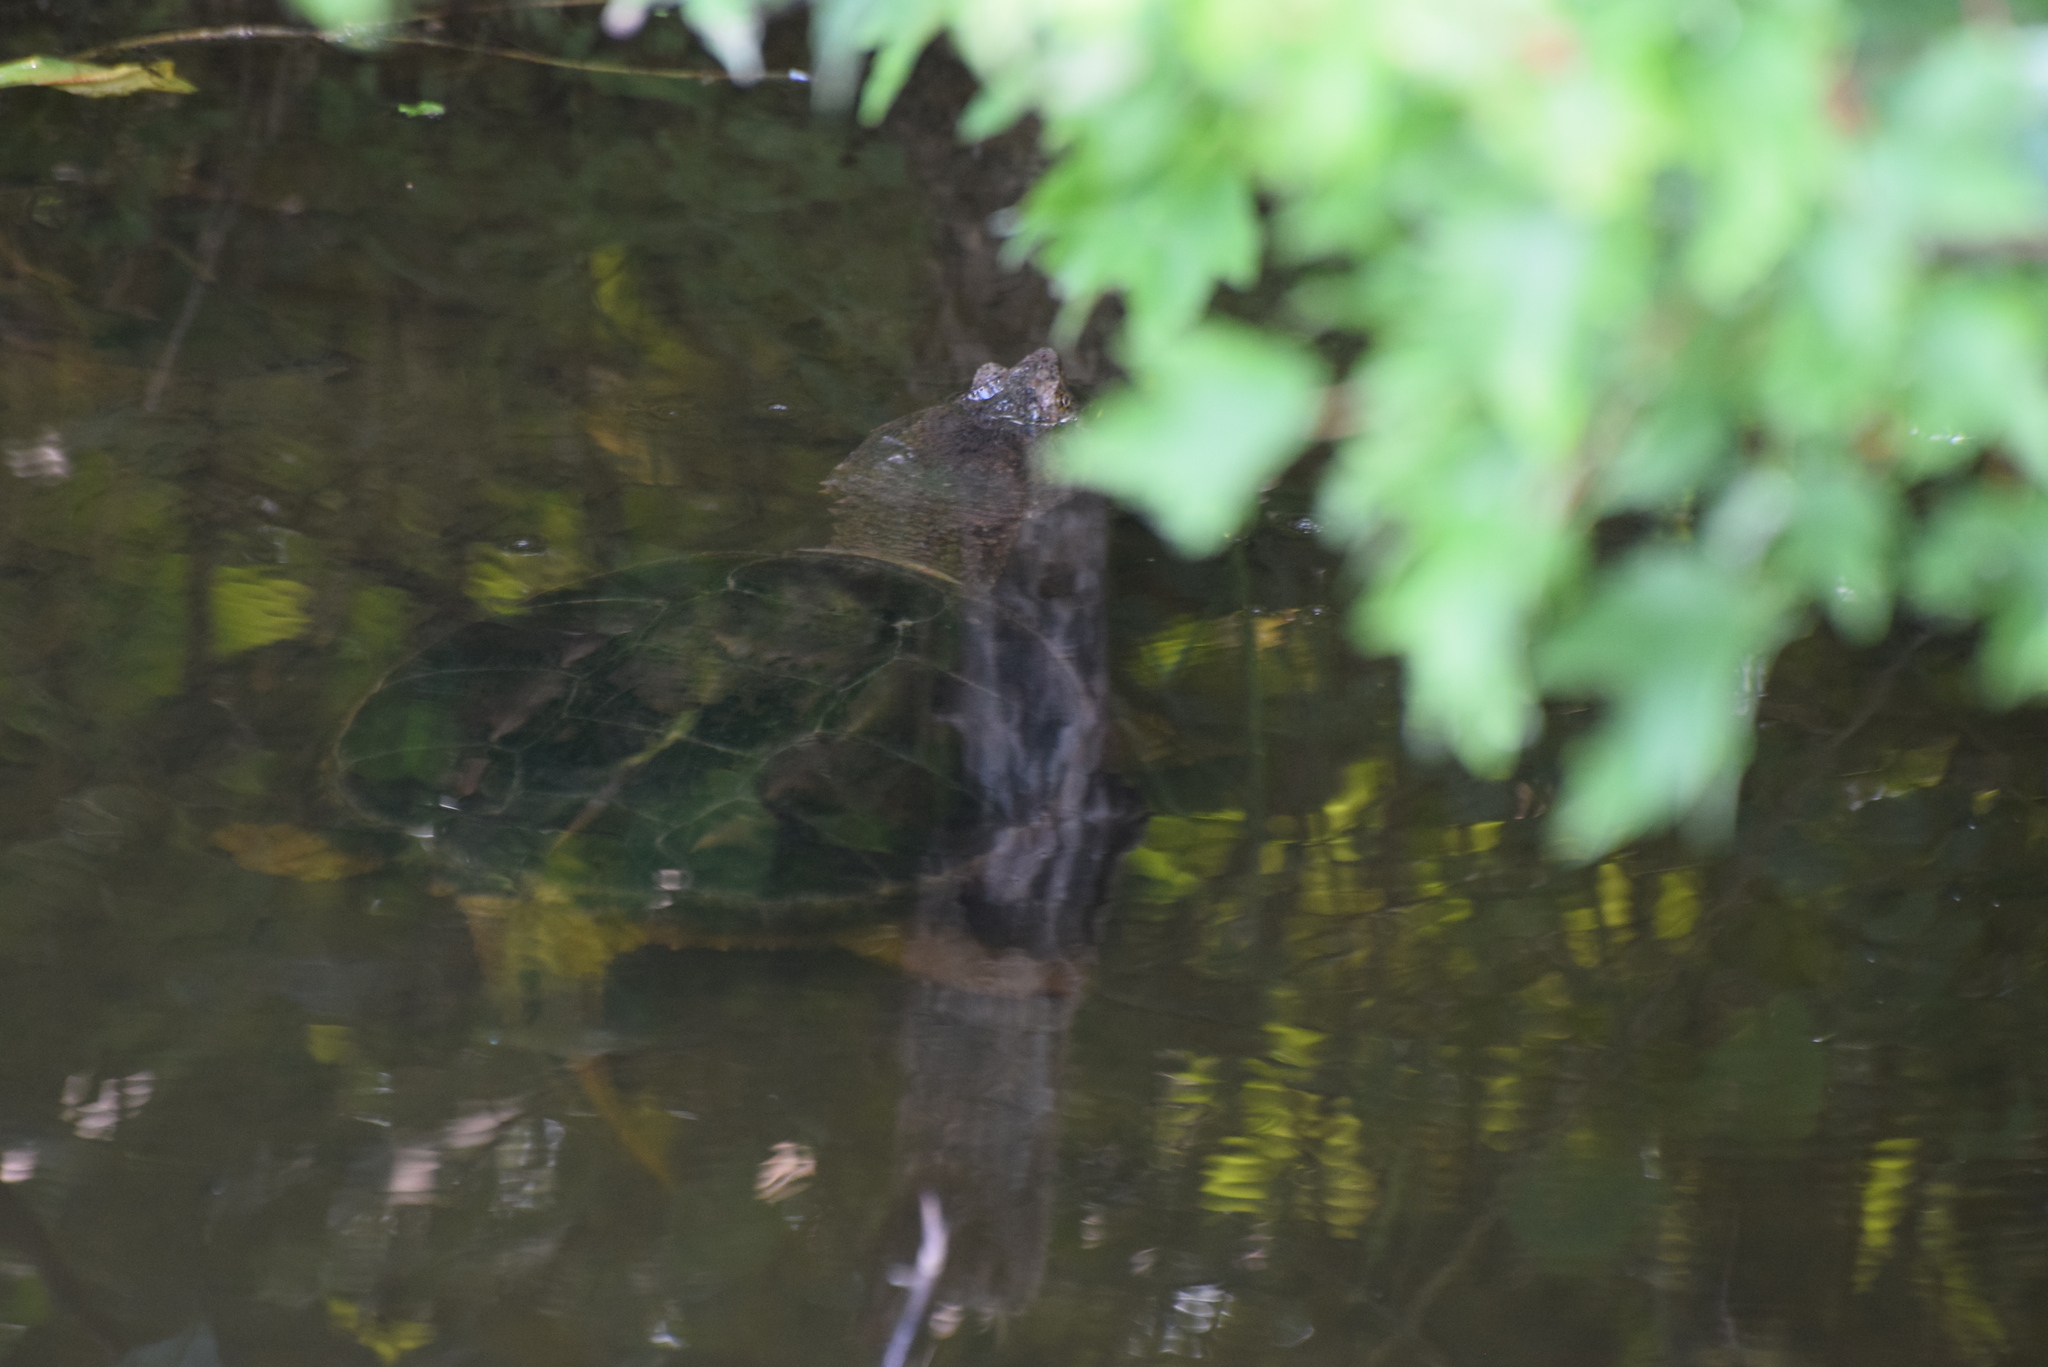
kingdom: Animalia
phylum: Chordata
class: Testudines
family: Chelydridae
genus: Chelydra
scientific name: Chelydra serpentina
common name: Common snapping turtle
